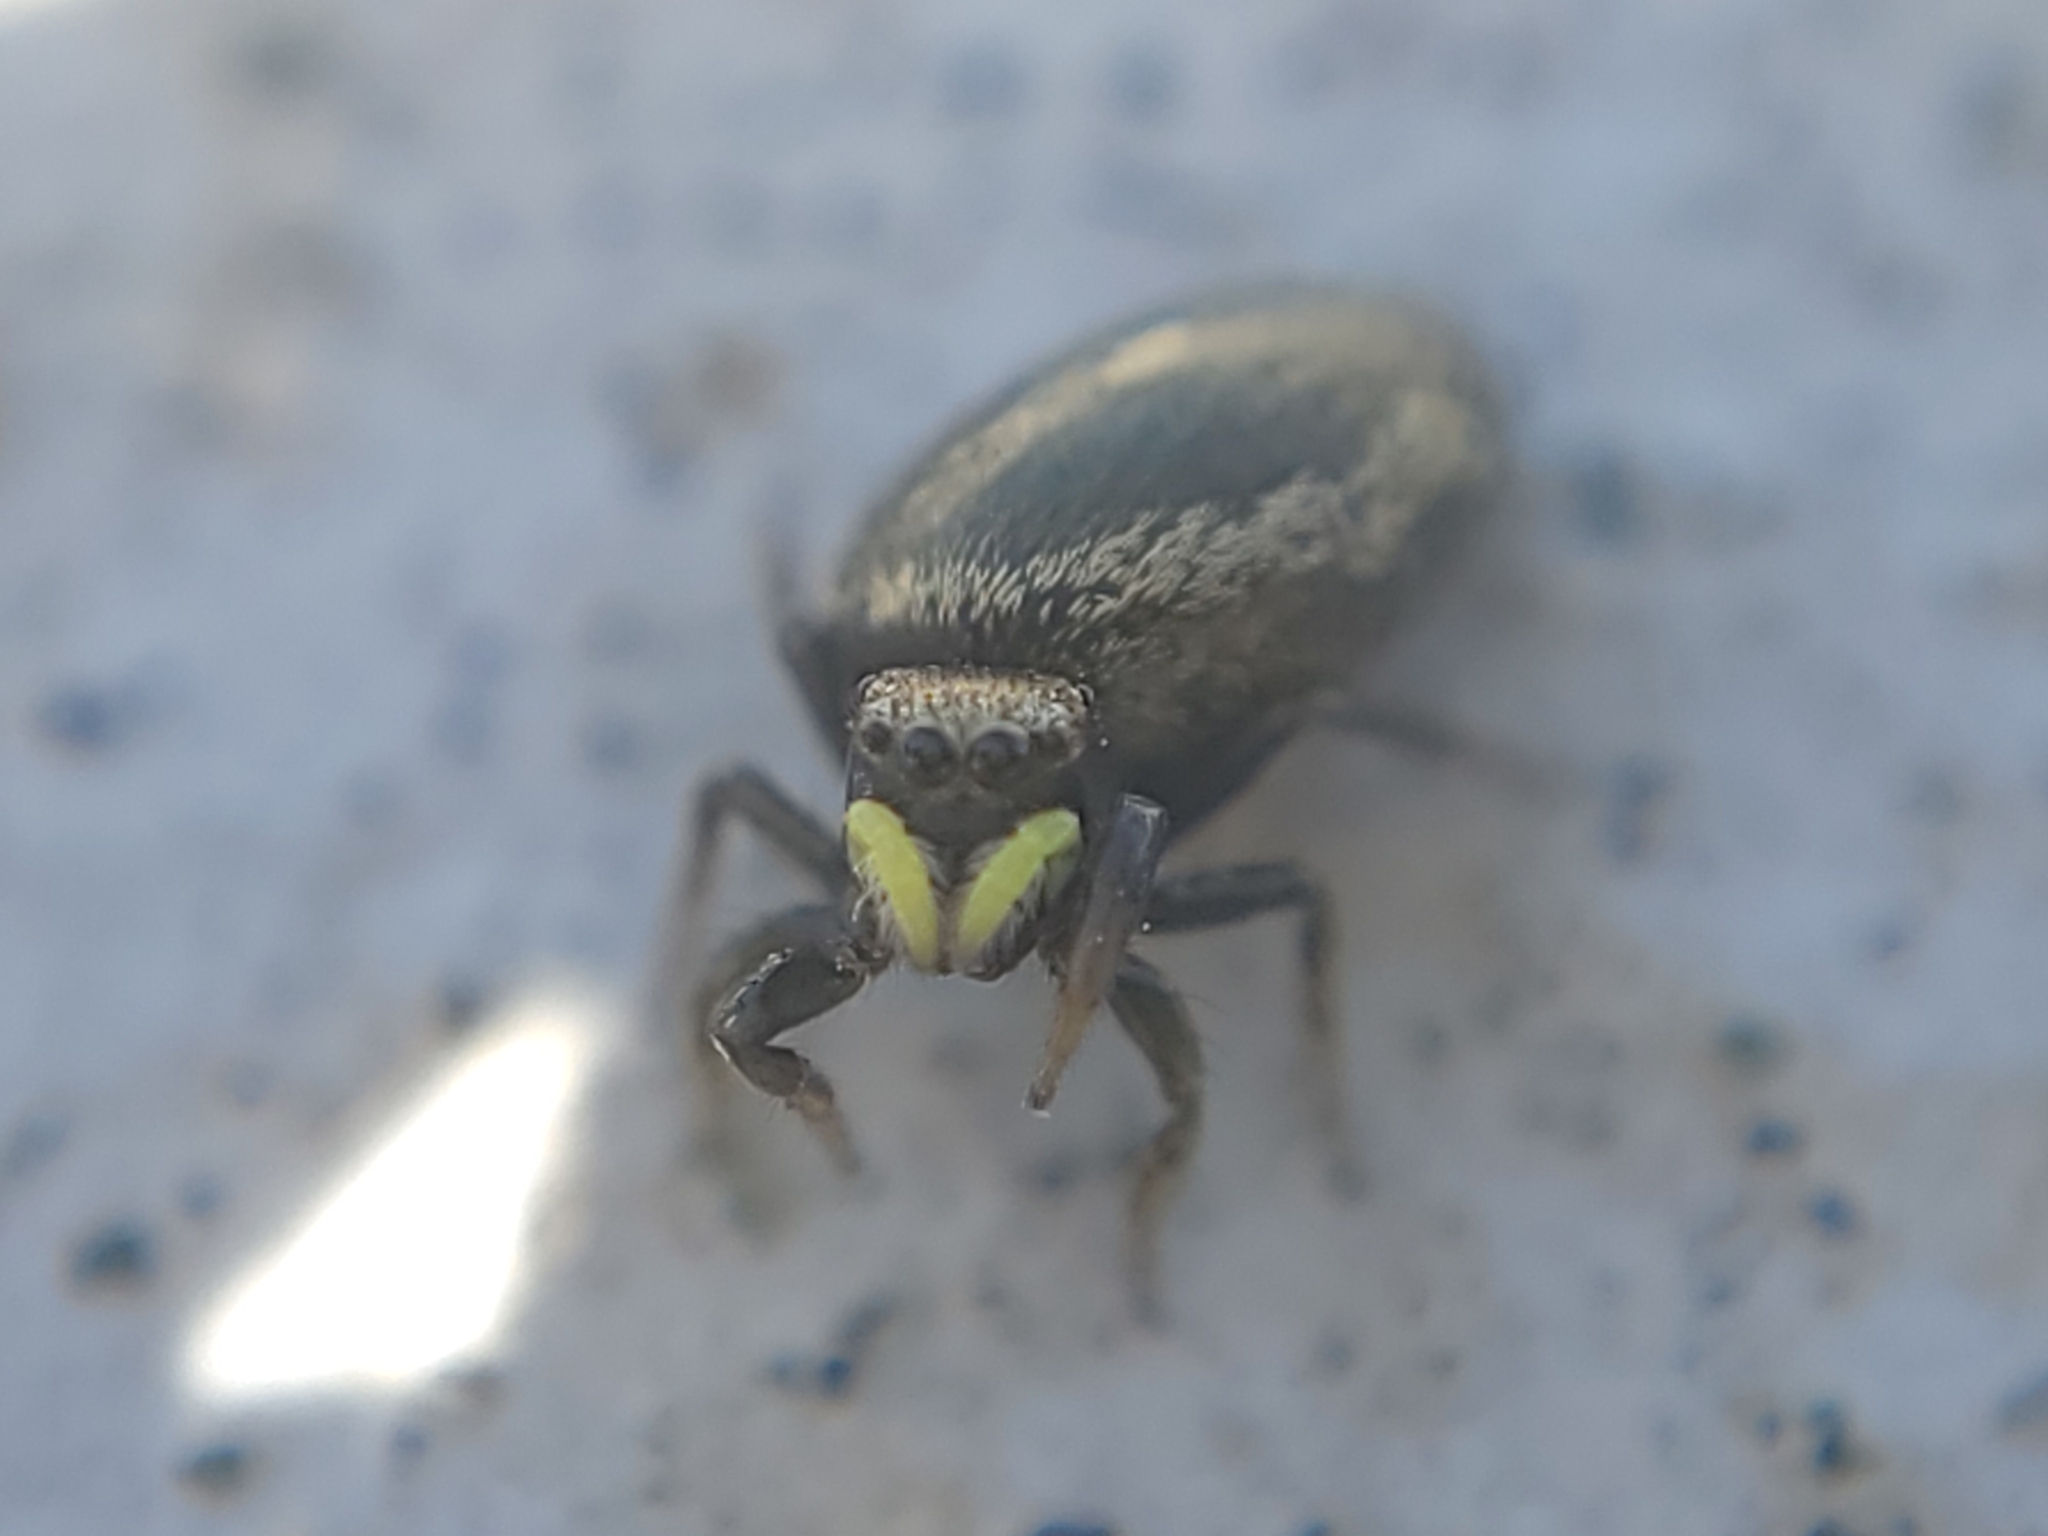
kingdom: Animalia
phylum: Arthropoda
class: Arachnida
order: Araneae
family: Salticidae
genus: Heliophanus
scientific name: Heliophanus apiatus
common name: Sun jumping spider
